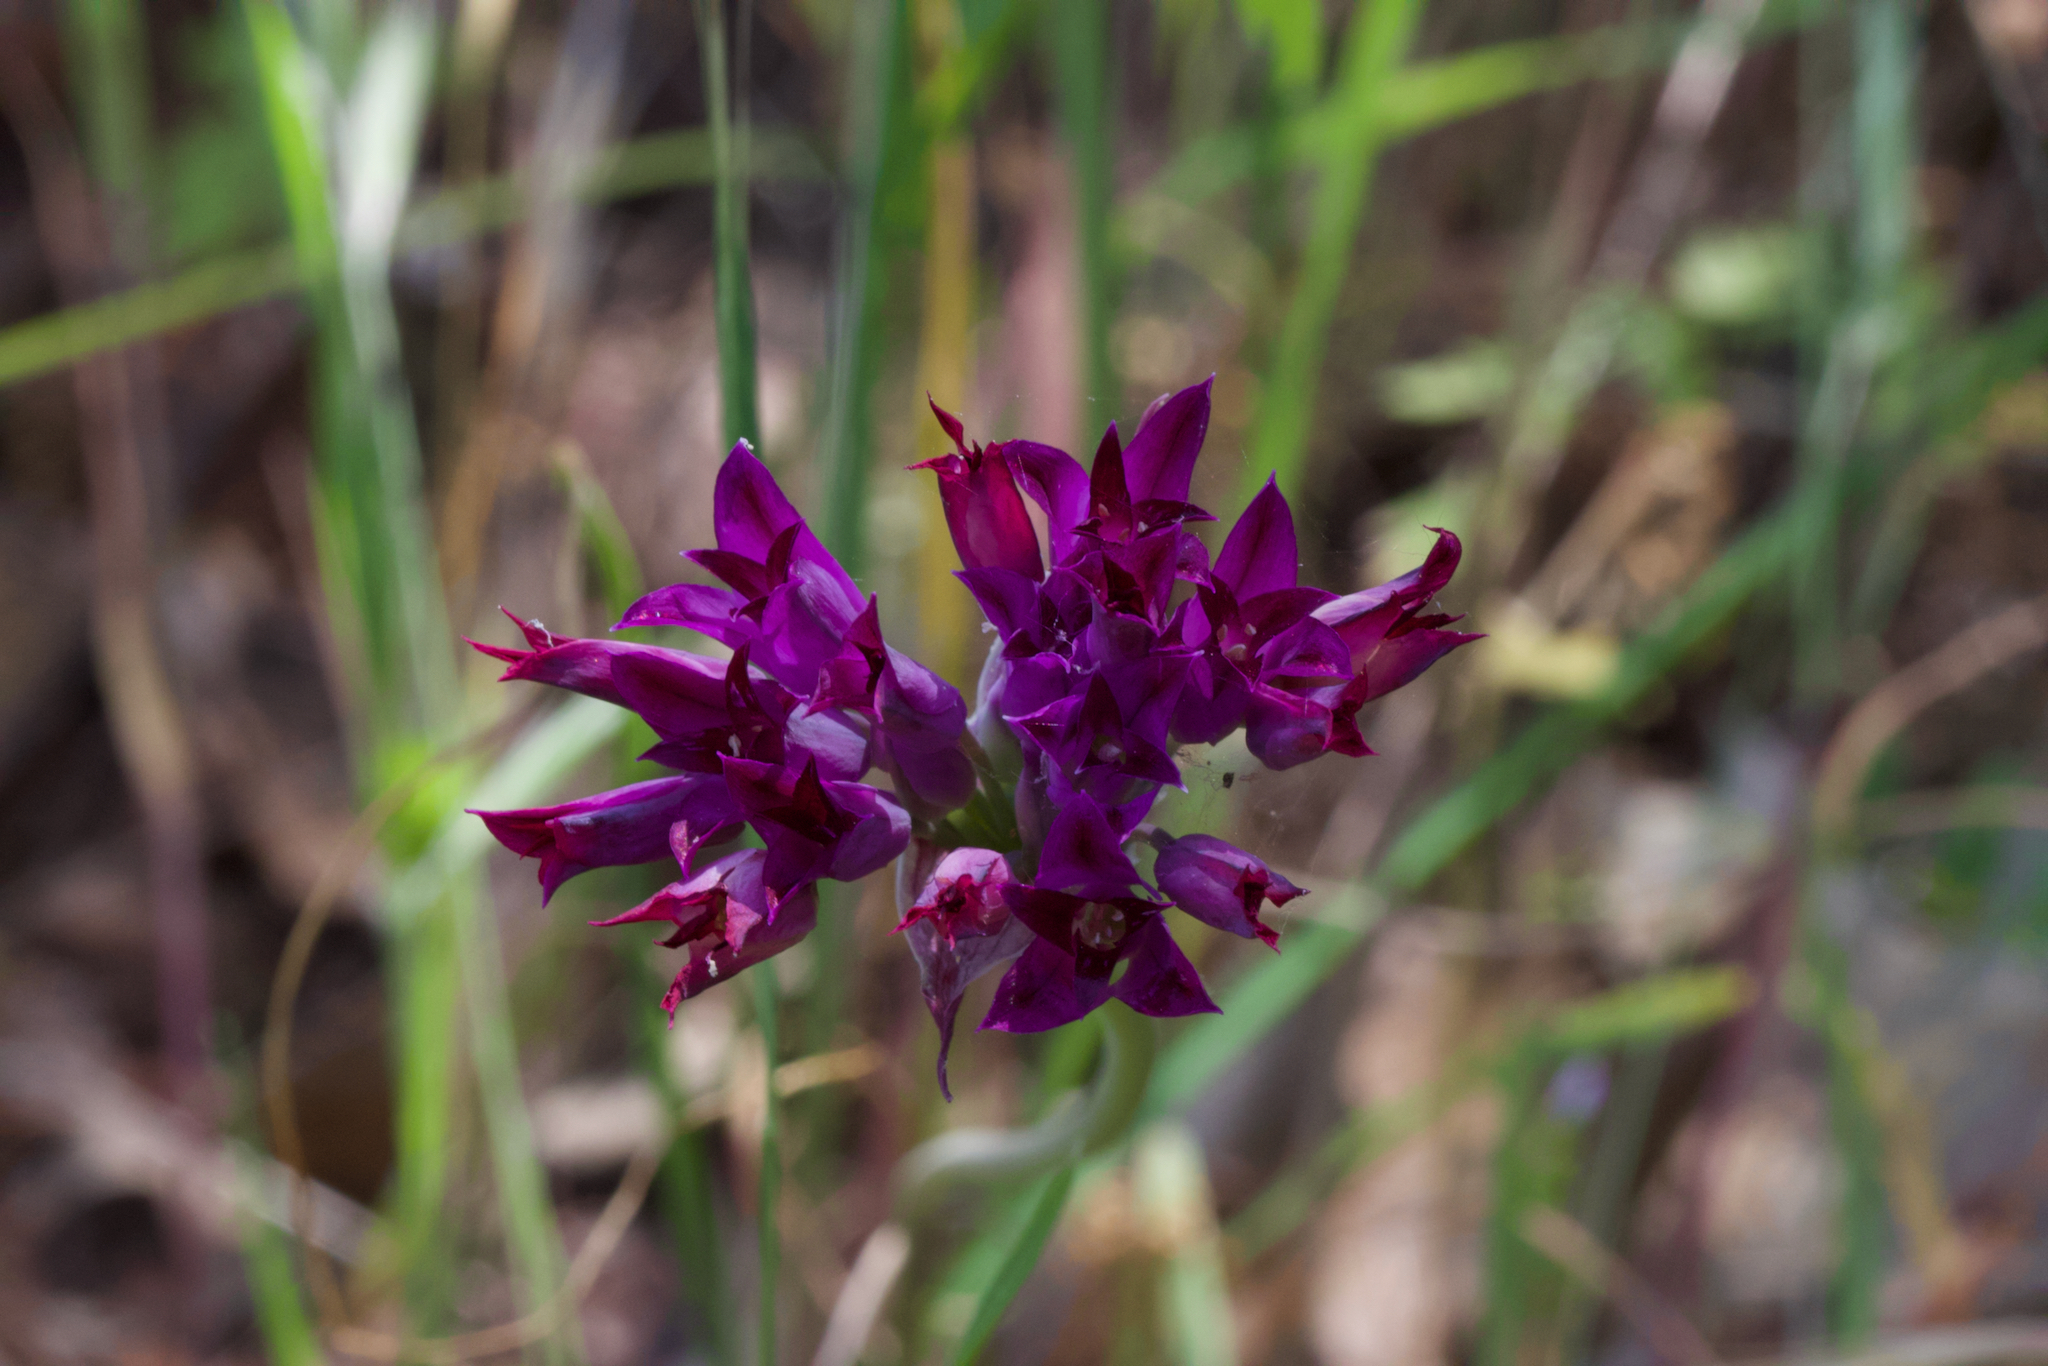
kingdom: Plantae
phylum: Tracheophyta
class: Liliopsida
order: Asparagales
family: Amaryllidaceae
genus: Allium
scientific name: Allium peninsulare
